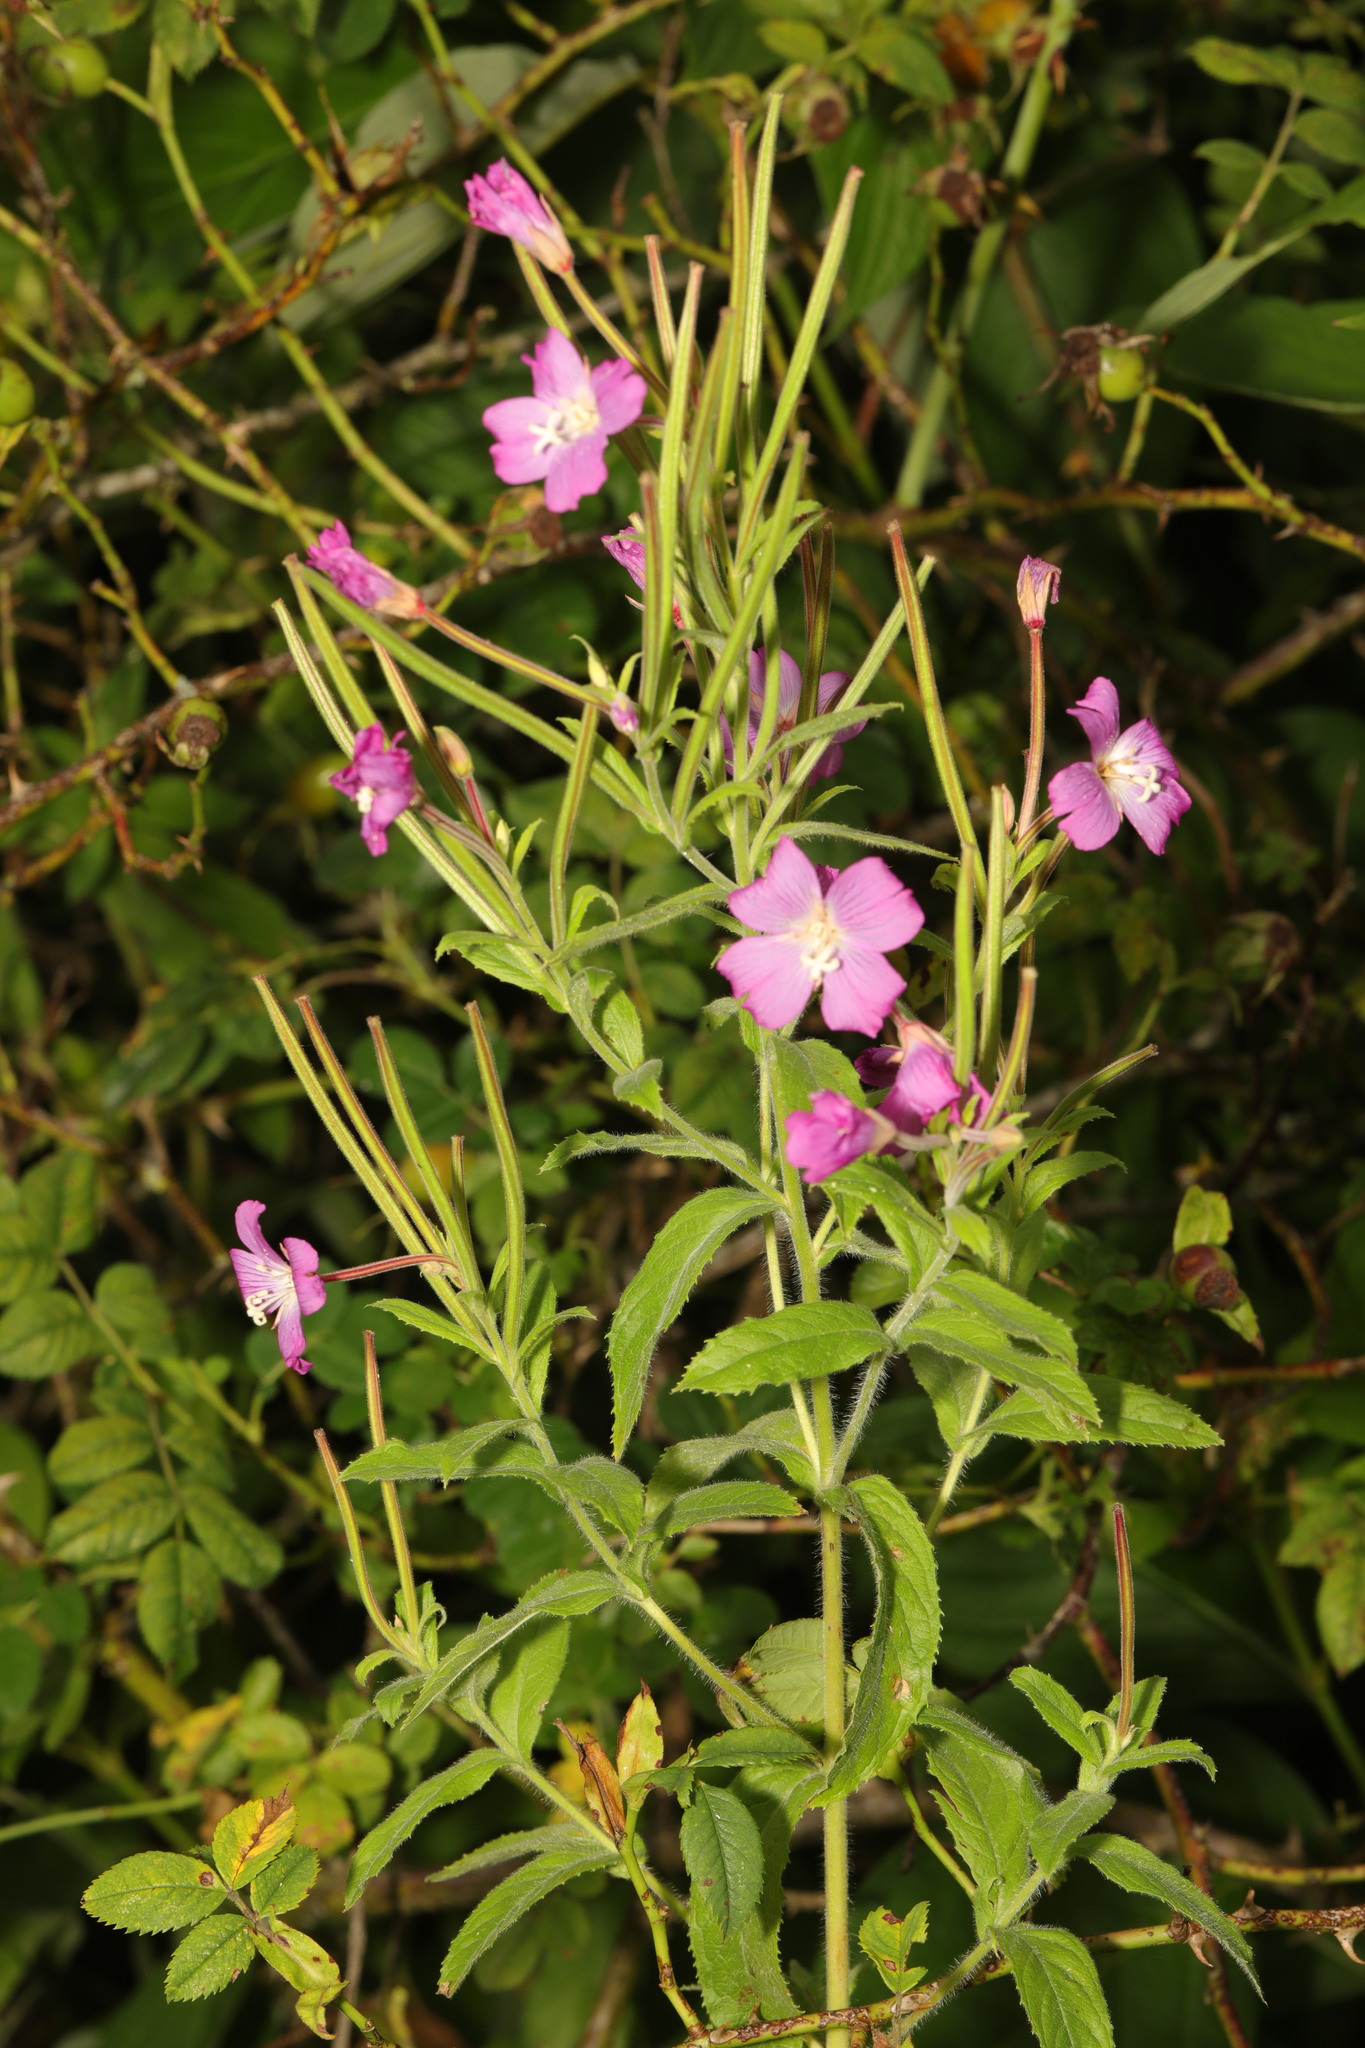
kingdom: Plantae
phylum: Tracheophyta
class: Magnoliopsida
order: Myrtales
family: Onagraceae
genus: Epilobium
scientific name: Epilobium hirsutum
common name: Great willowherb
